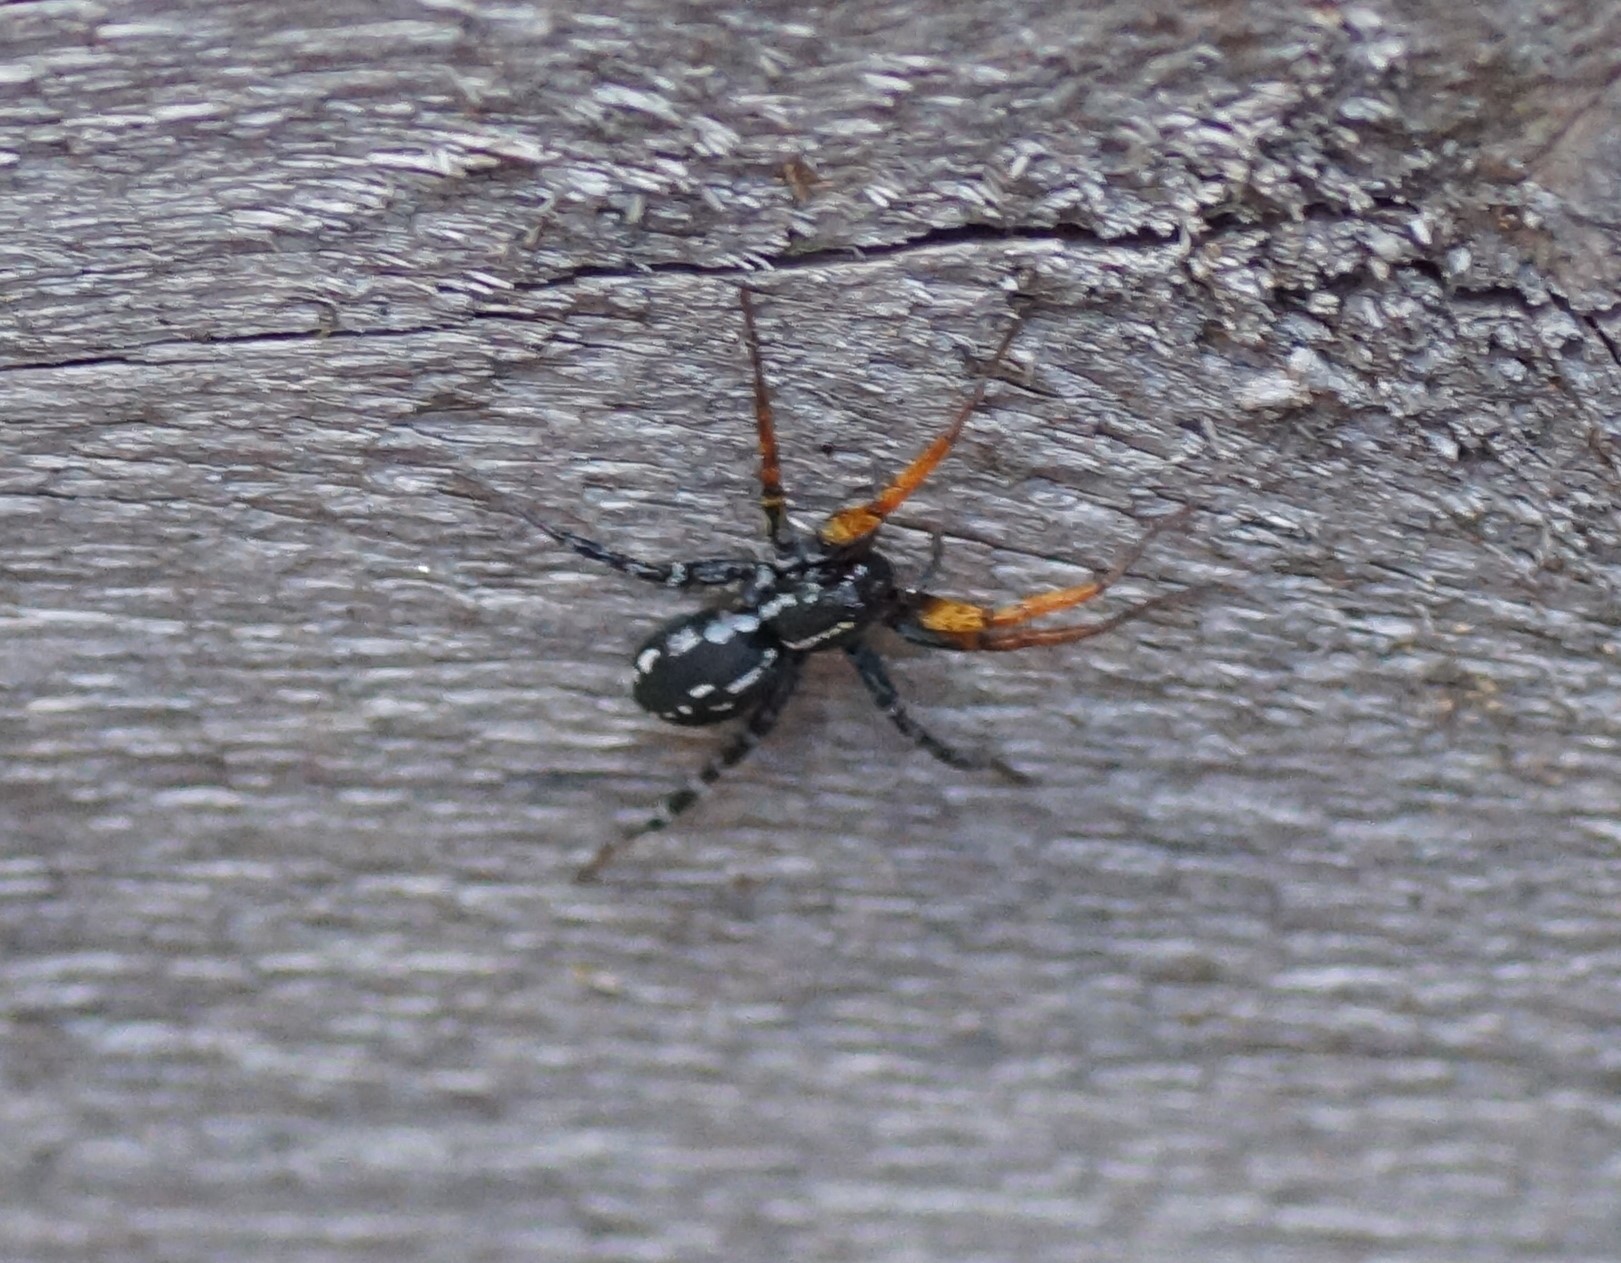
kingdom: Animalia
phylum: Arthropoda
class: Arachnida
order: Araneae
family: Corinnidae
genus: Nyssus
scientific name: Nyssus coloripes
